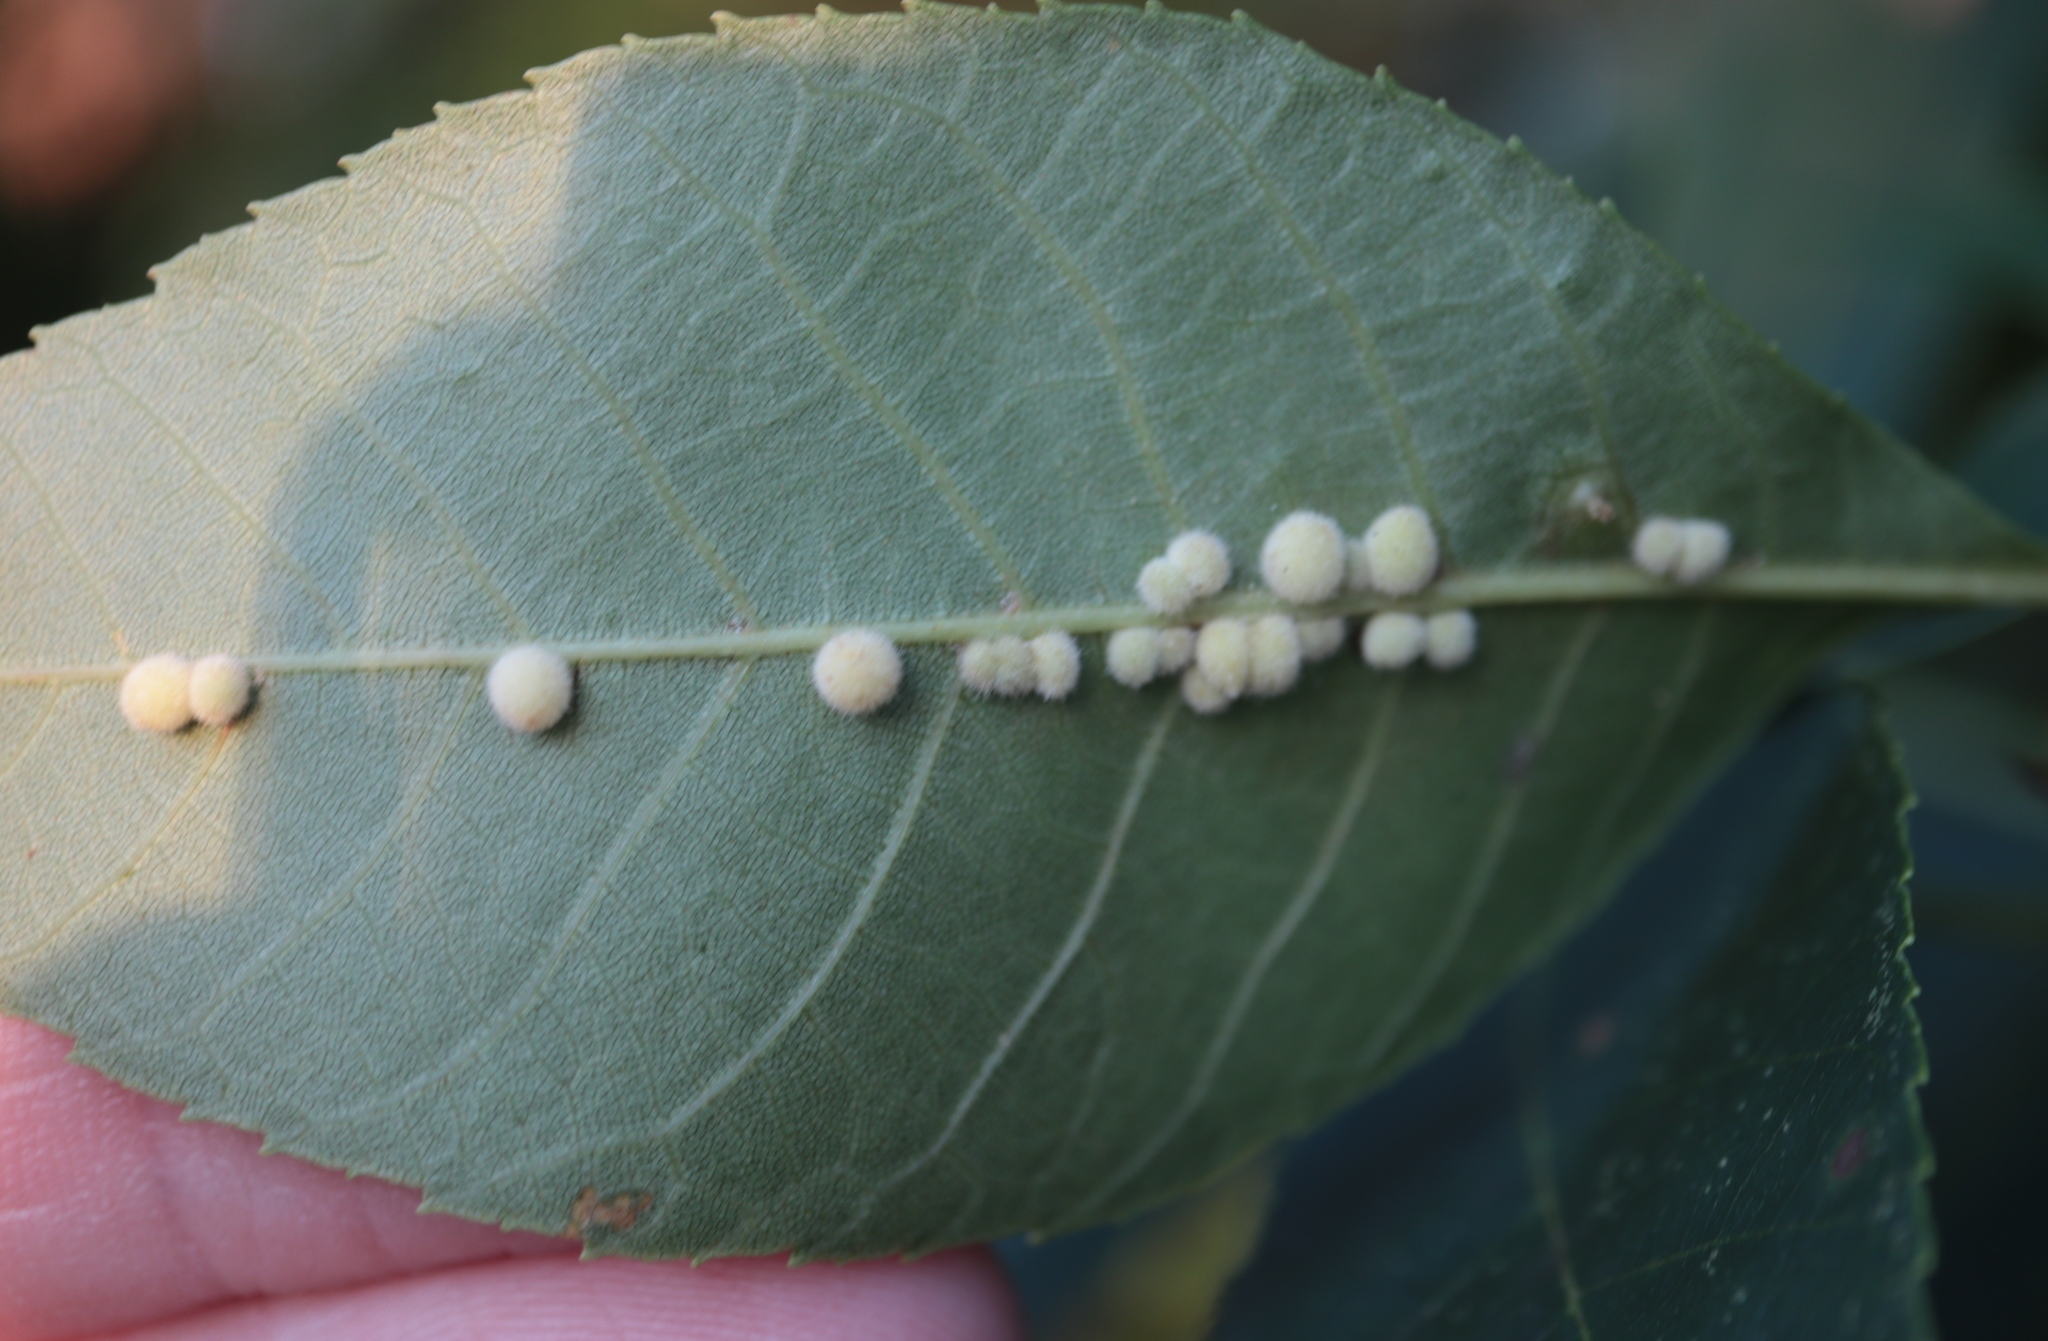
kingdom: Animalia
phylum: Arthropoda
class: Insecta
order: Diptera
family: Cecidomyiidae
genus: Caryomyia
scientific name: Caryomyia aggregata
